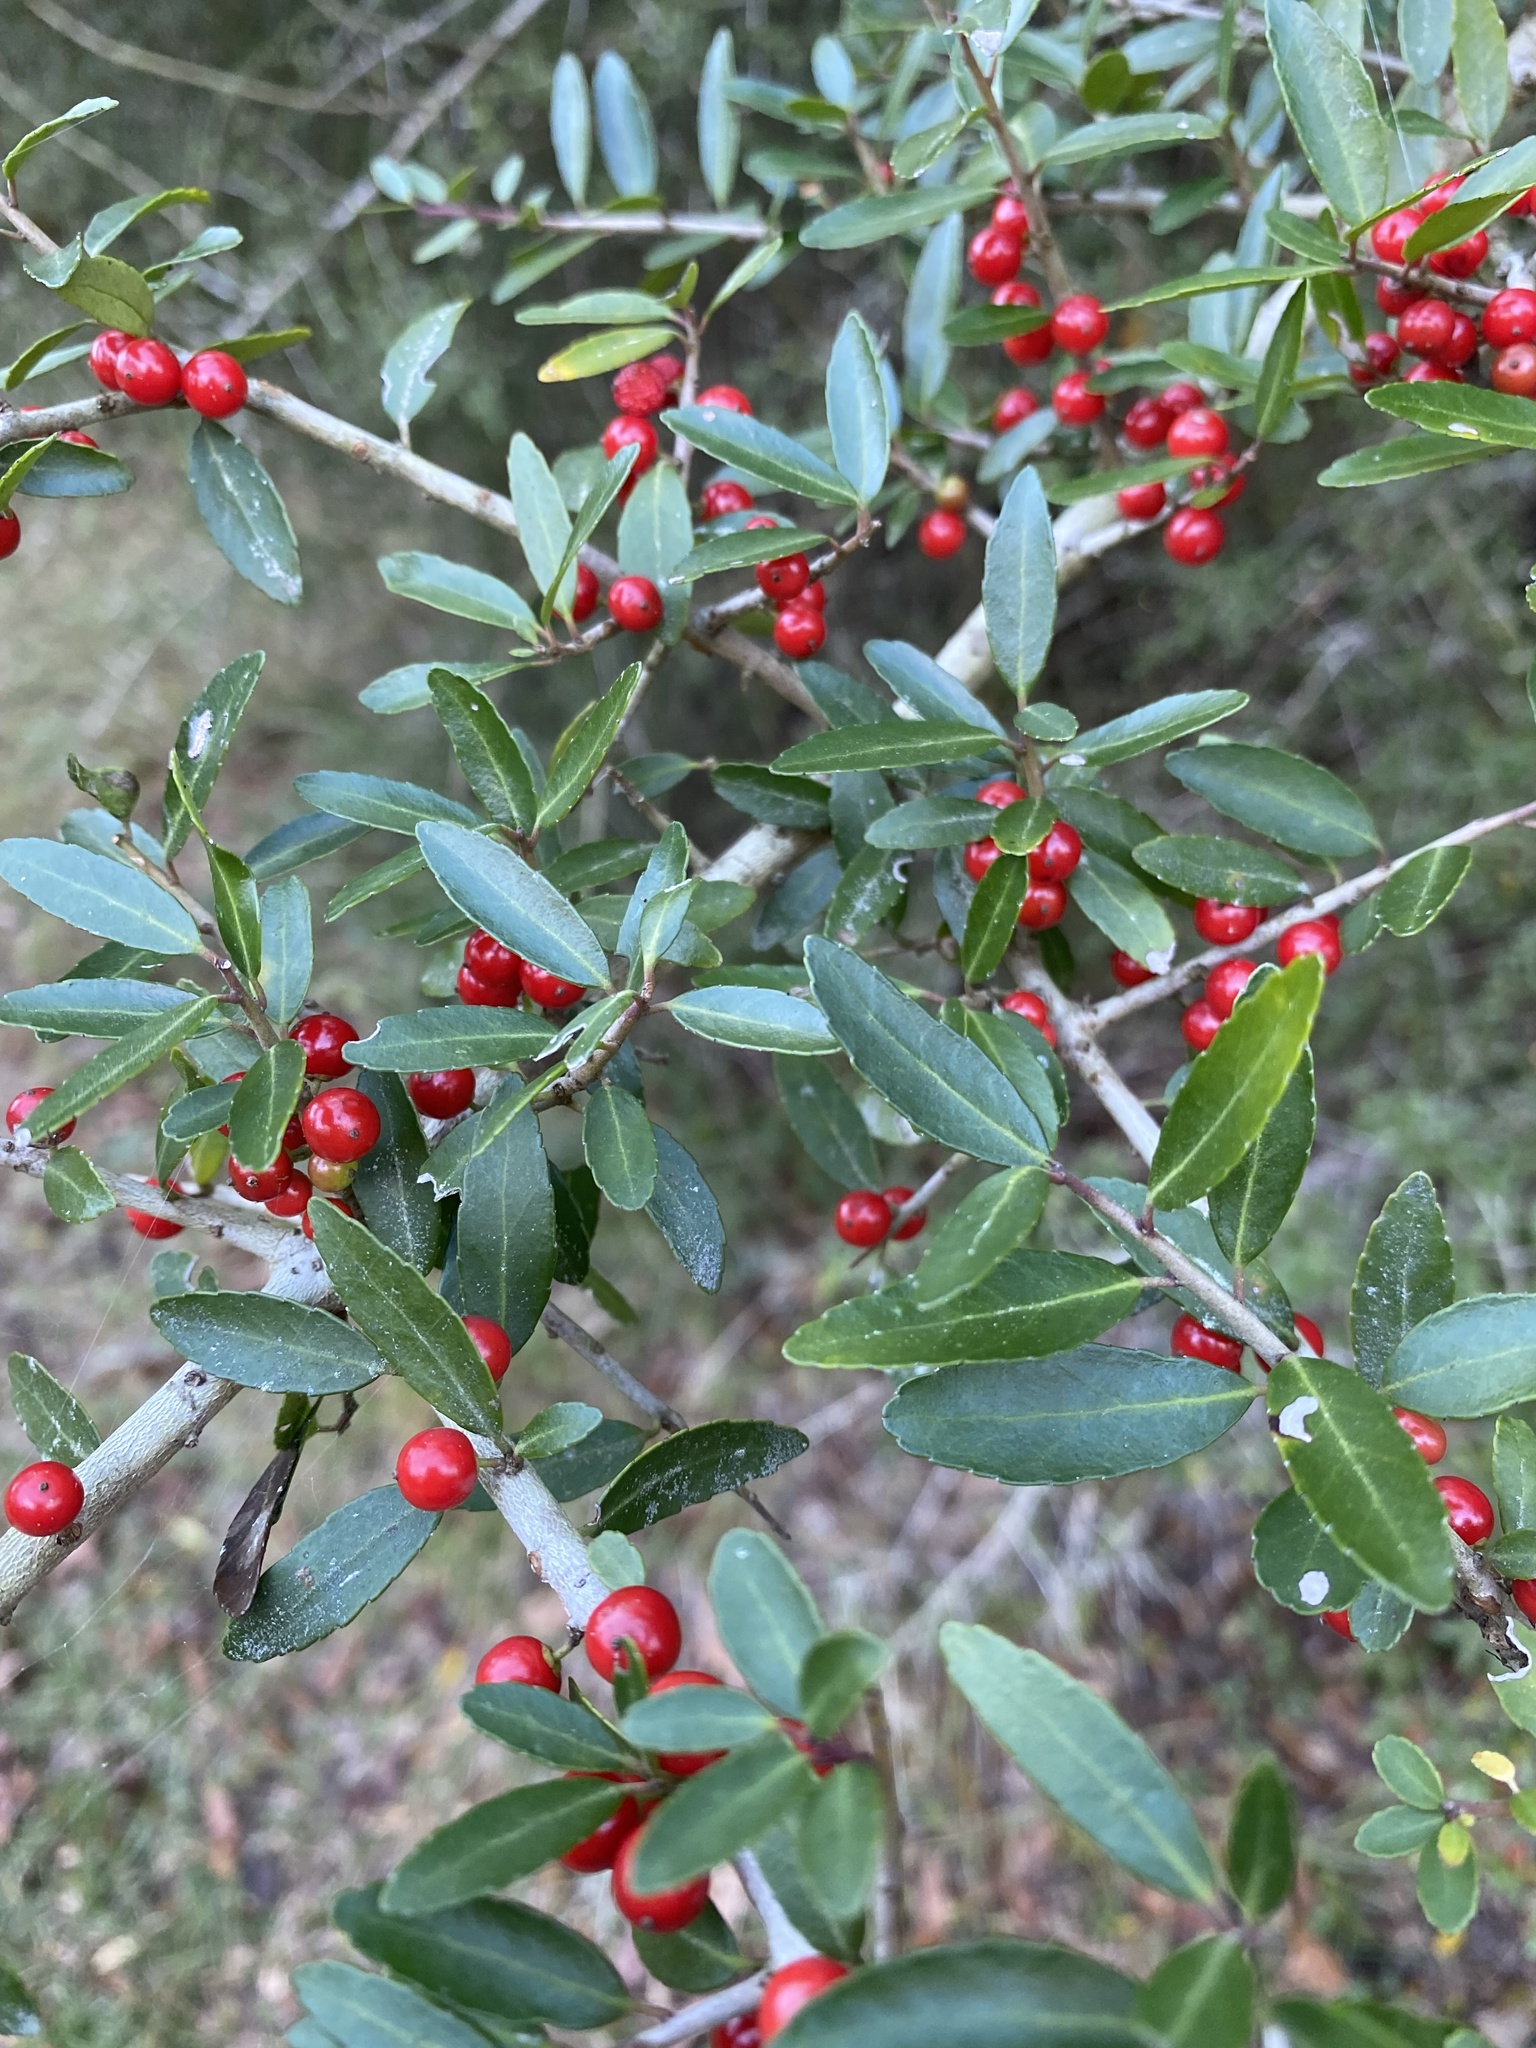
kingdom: Plantae
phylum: Tracheophyta
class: Magnoliopsida
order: Aquifoliales
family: Aquifoliaceae
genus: Ilex
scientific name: Ilex vomitoria
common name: Yaupon holly
